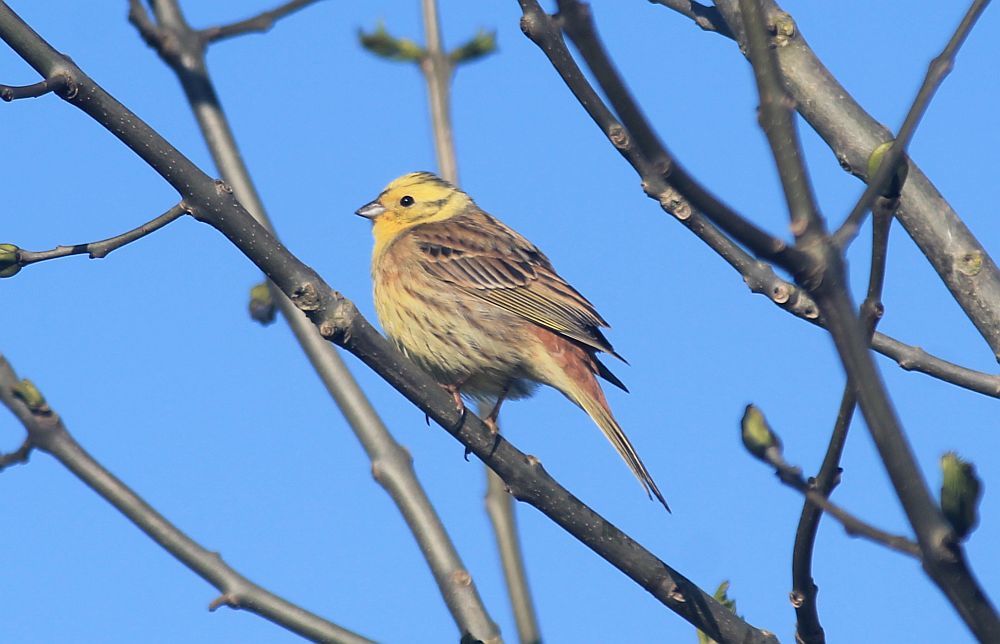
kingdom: Animalia
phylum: Chordata
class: Aves
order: Passeriformes
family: Emberizidae
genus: Emberiza
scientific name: Emberiza citrinella
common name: Yellowhammer
